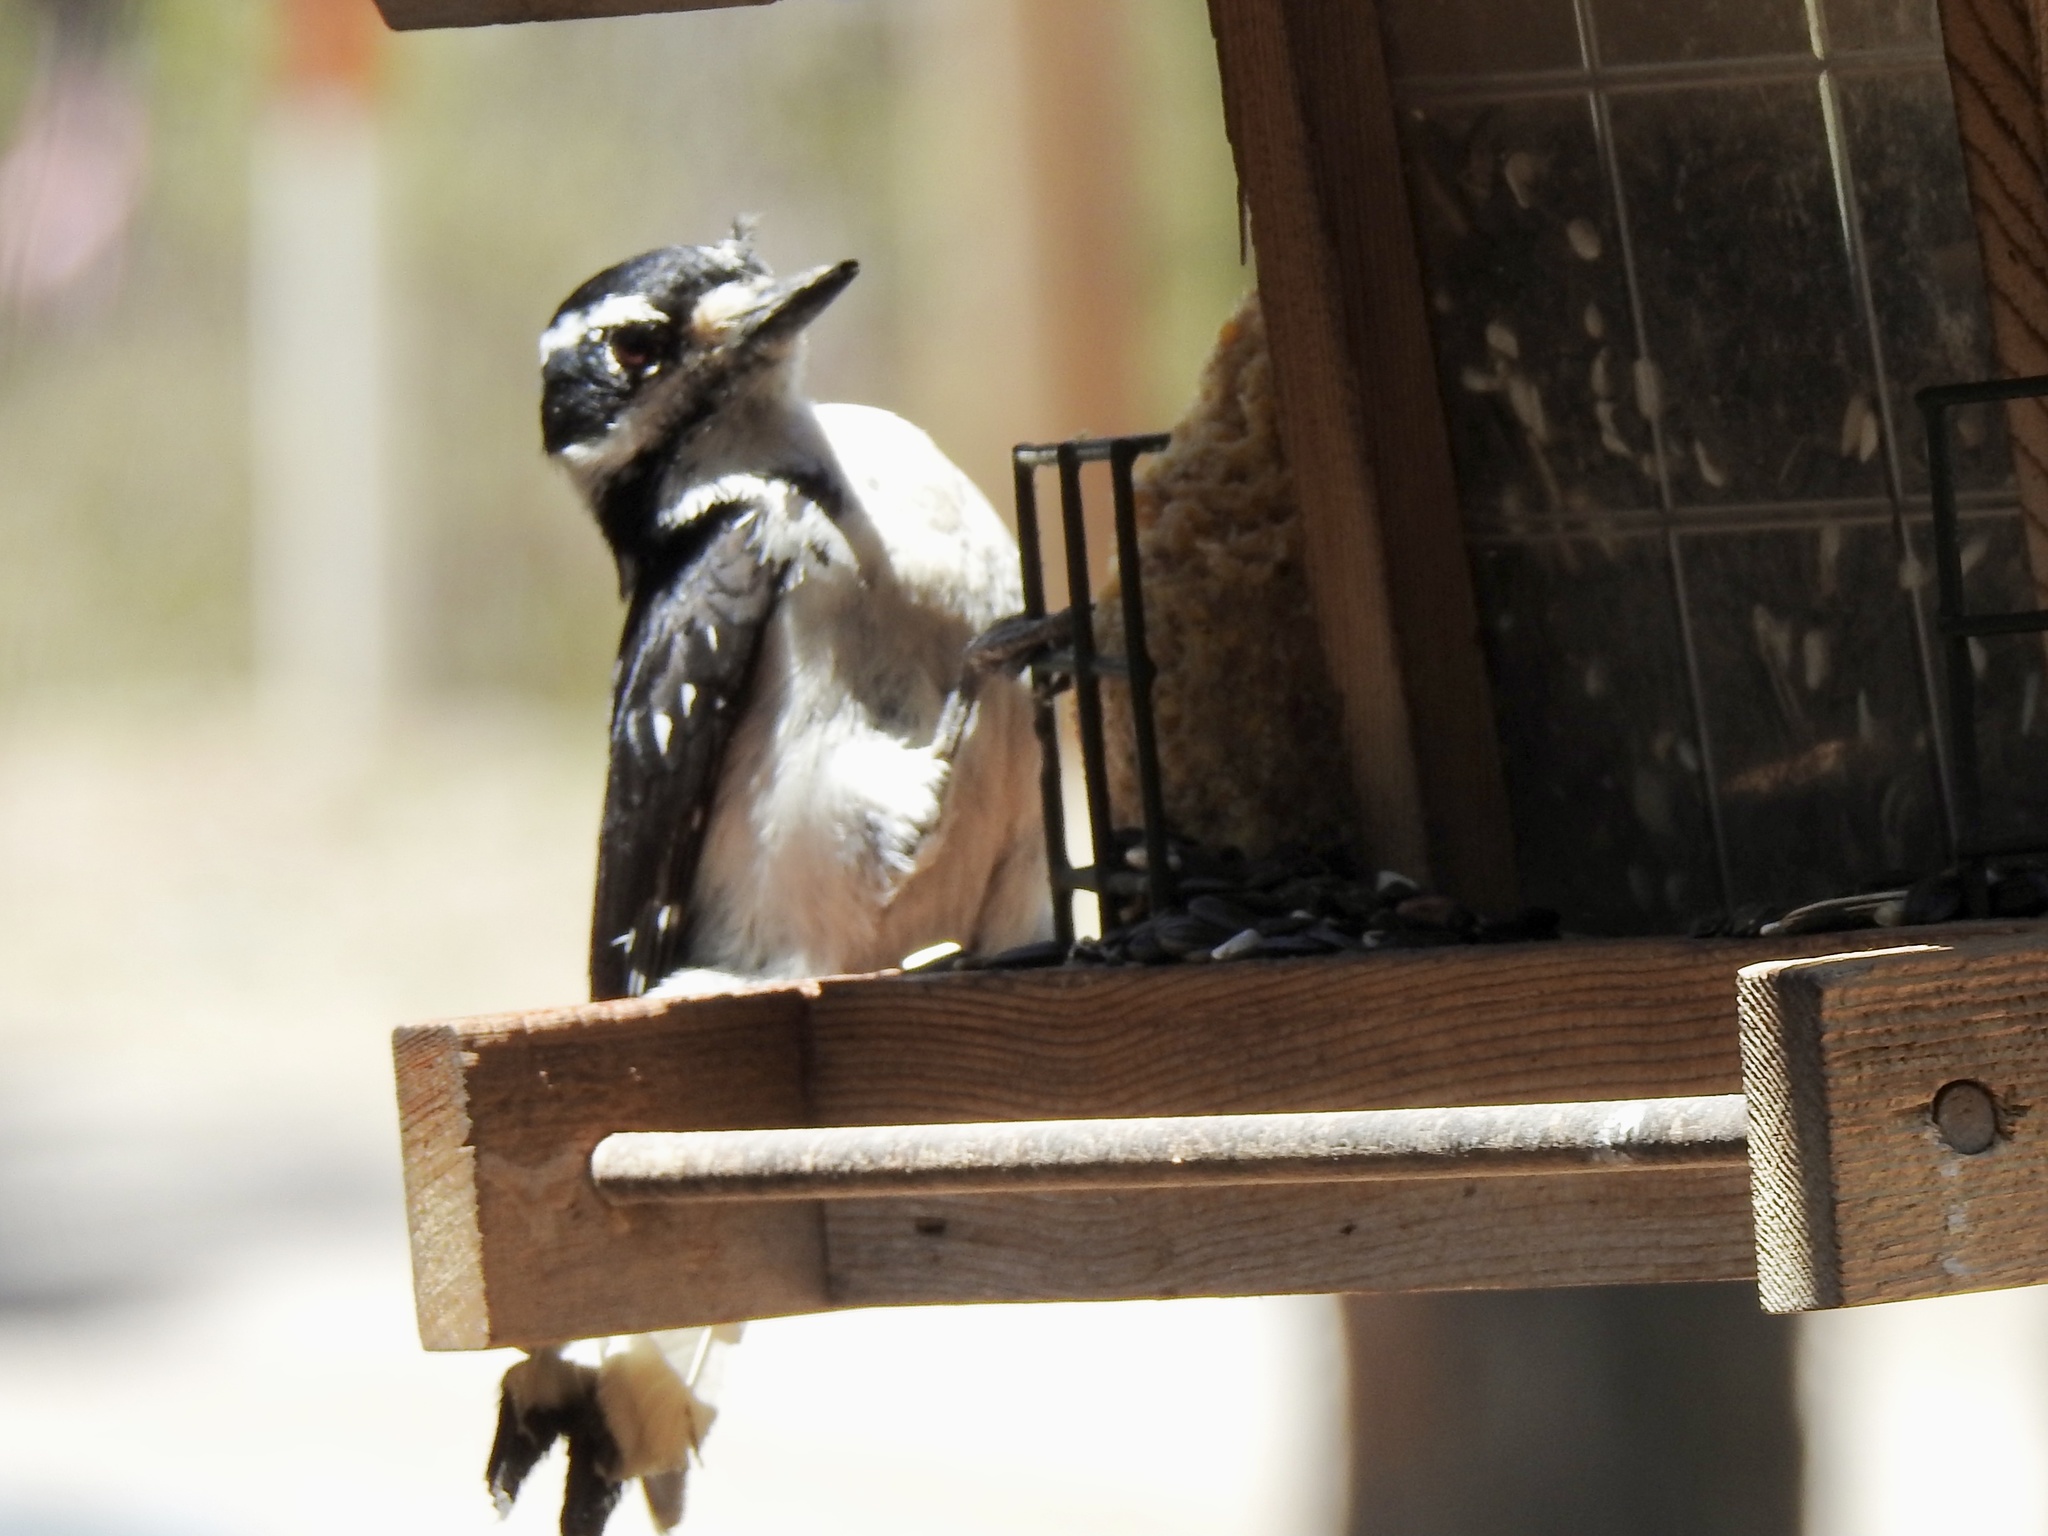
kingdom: Animalia
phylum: Chordata
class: Aves
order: Piciformes
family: Picidae
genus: Leuconotopicus
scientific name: Leuconotopicus villosus
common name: Hairy woodpecker
